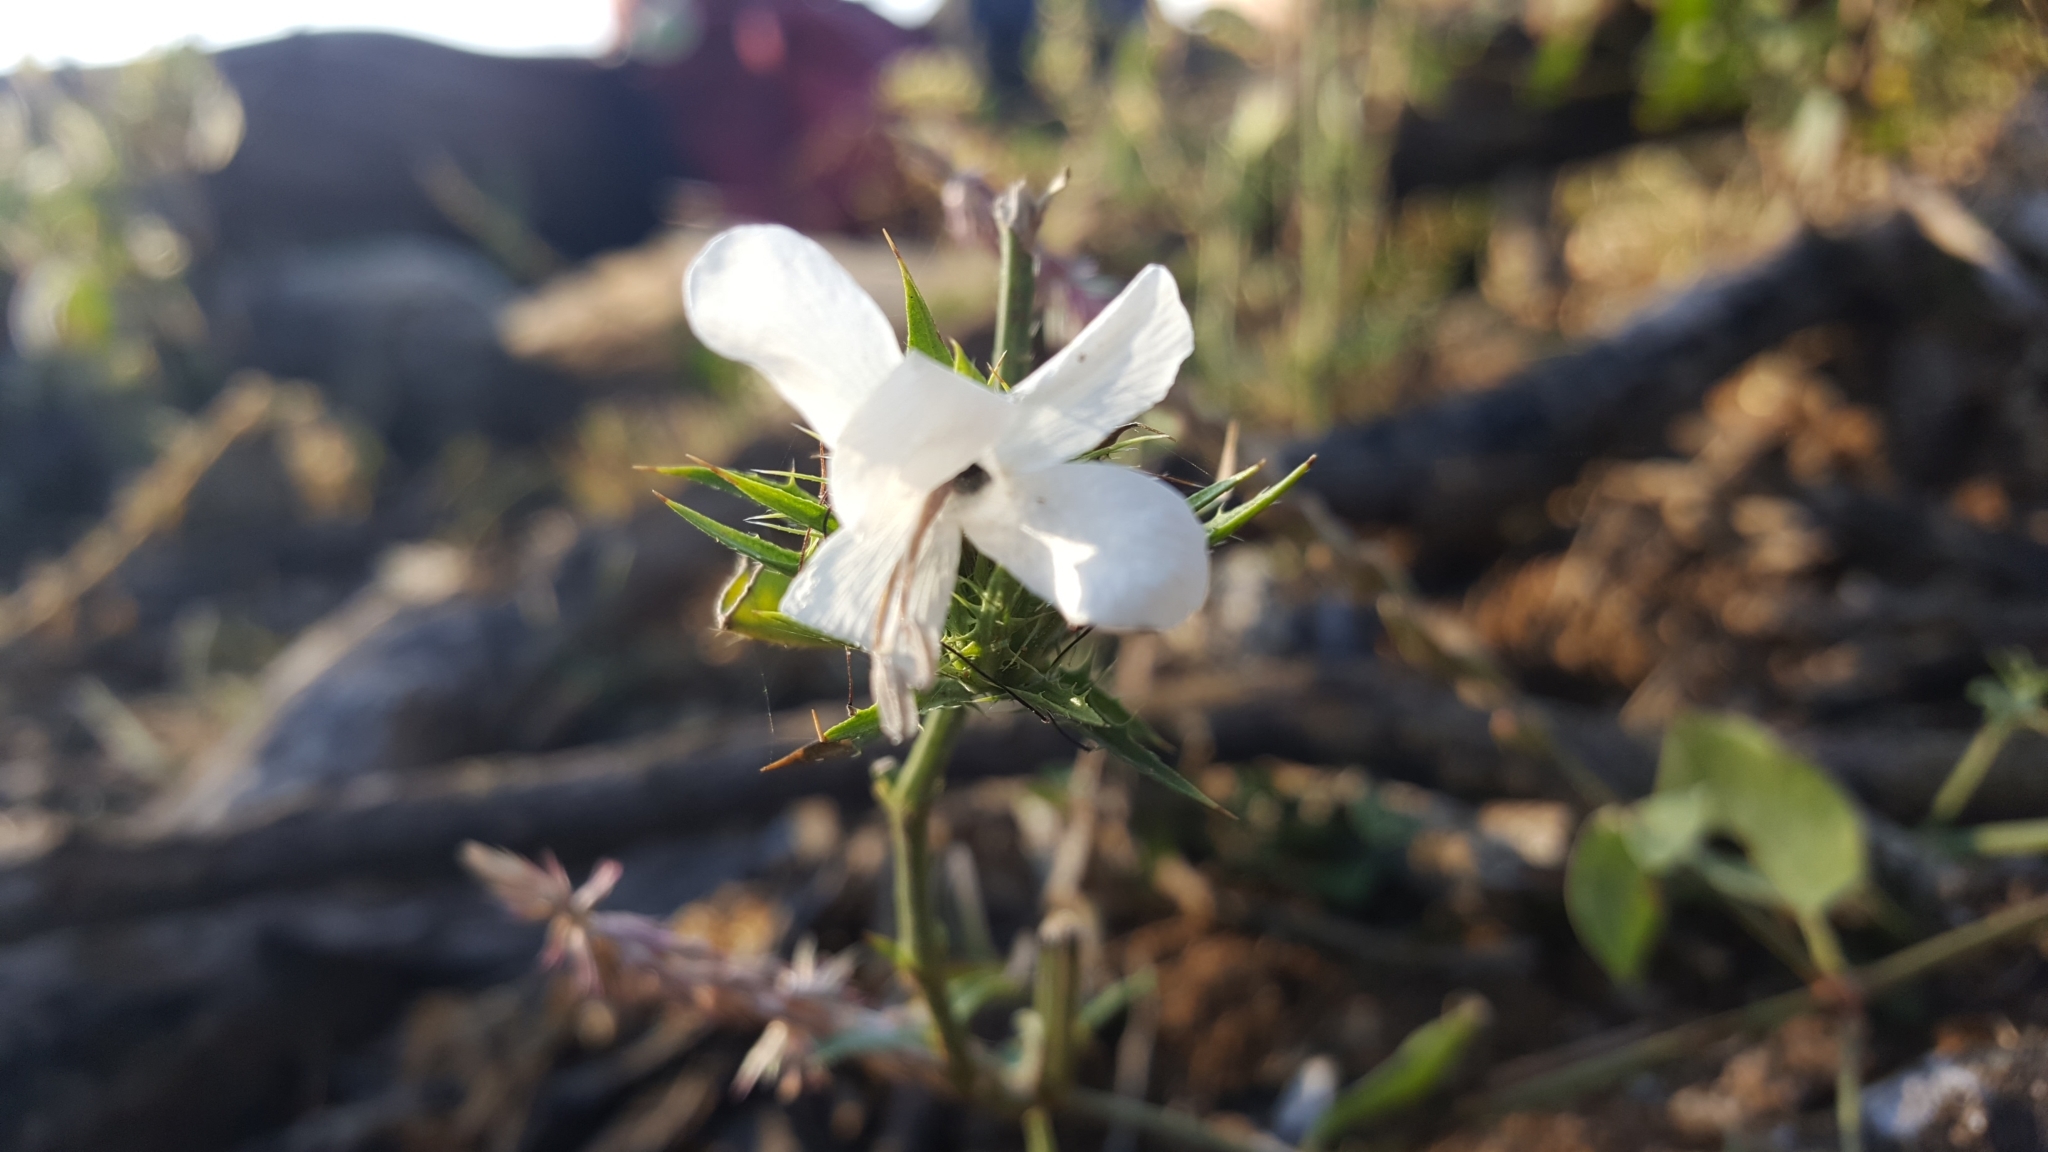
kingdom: Plantae
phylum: Tracheophyta
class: Magnoliopsida
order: Lamiales
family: Acanthaceae
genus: Barleria
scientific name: Barleria elegans
